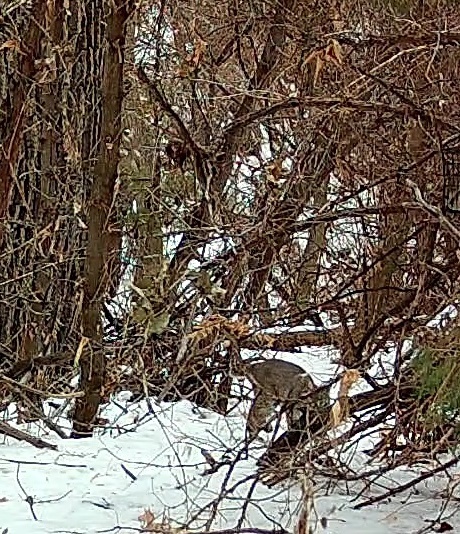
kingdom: Animalia
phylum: Chordata
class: Mammalia
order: Carnivora
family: Felidae
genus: Lynx
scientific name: Lynx rufus
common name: Bobcat
